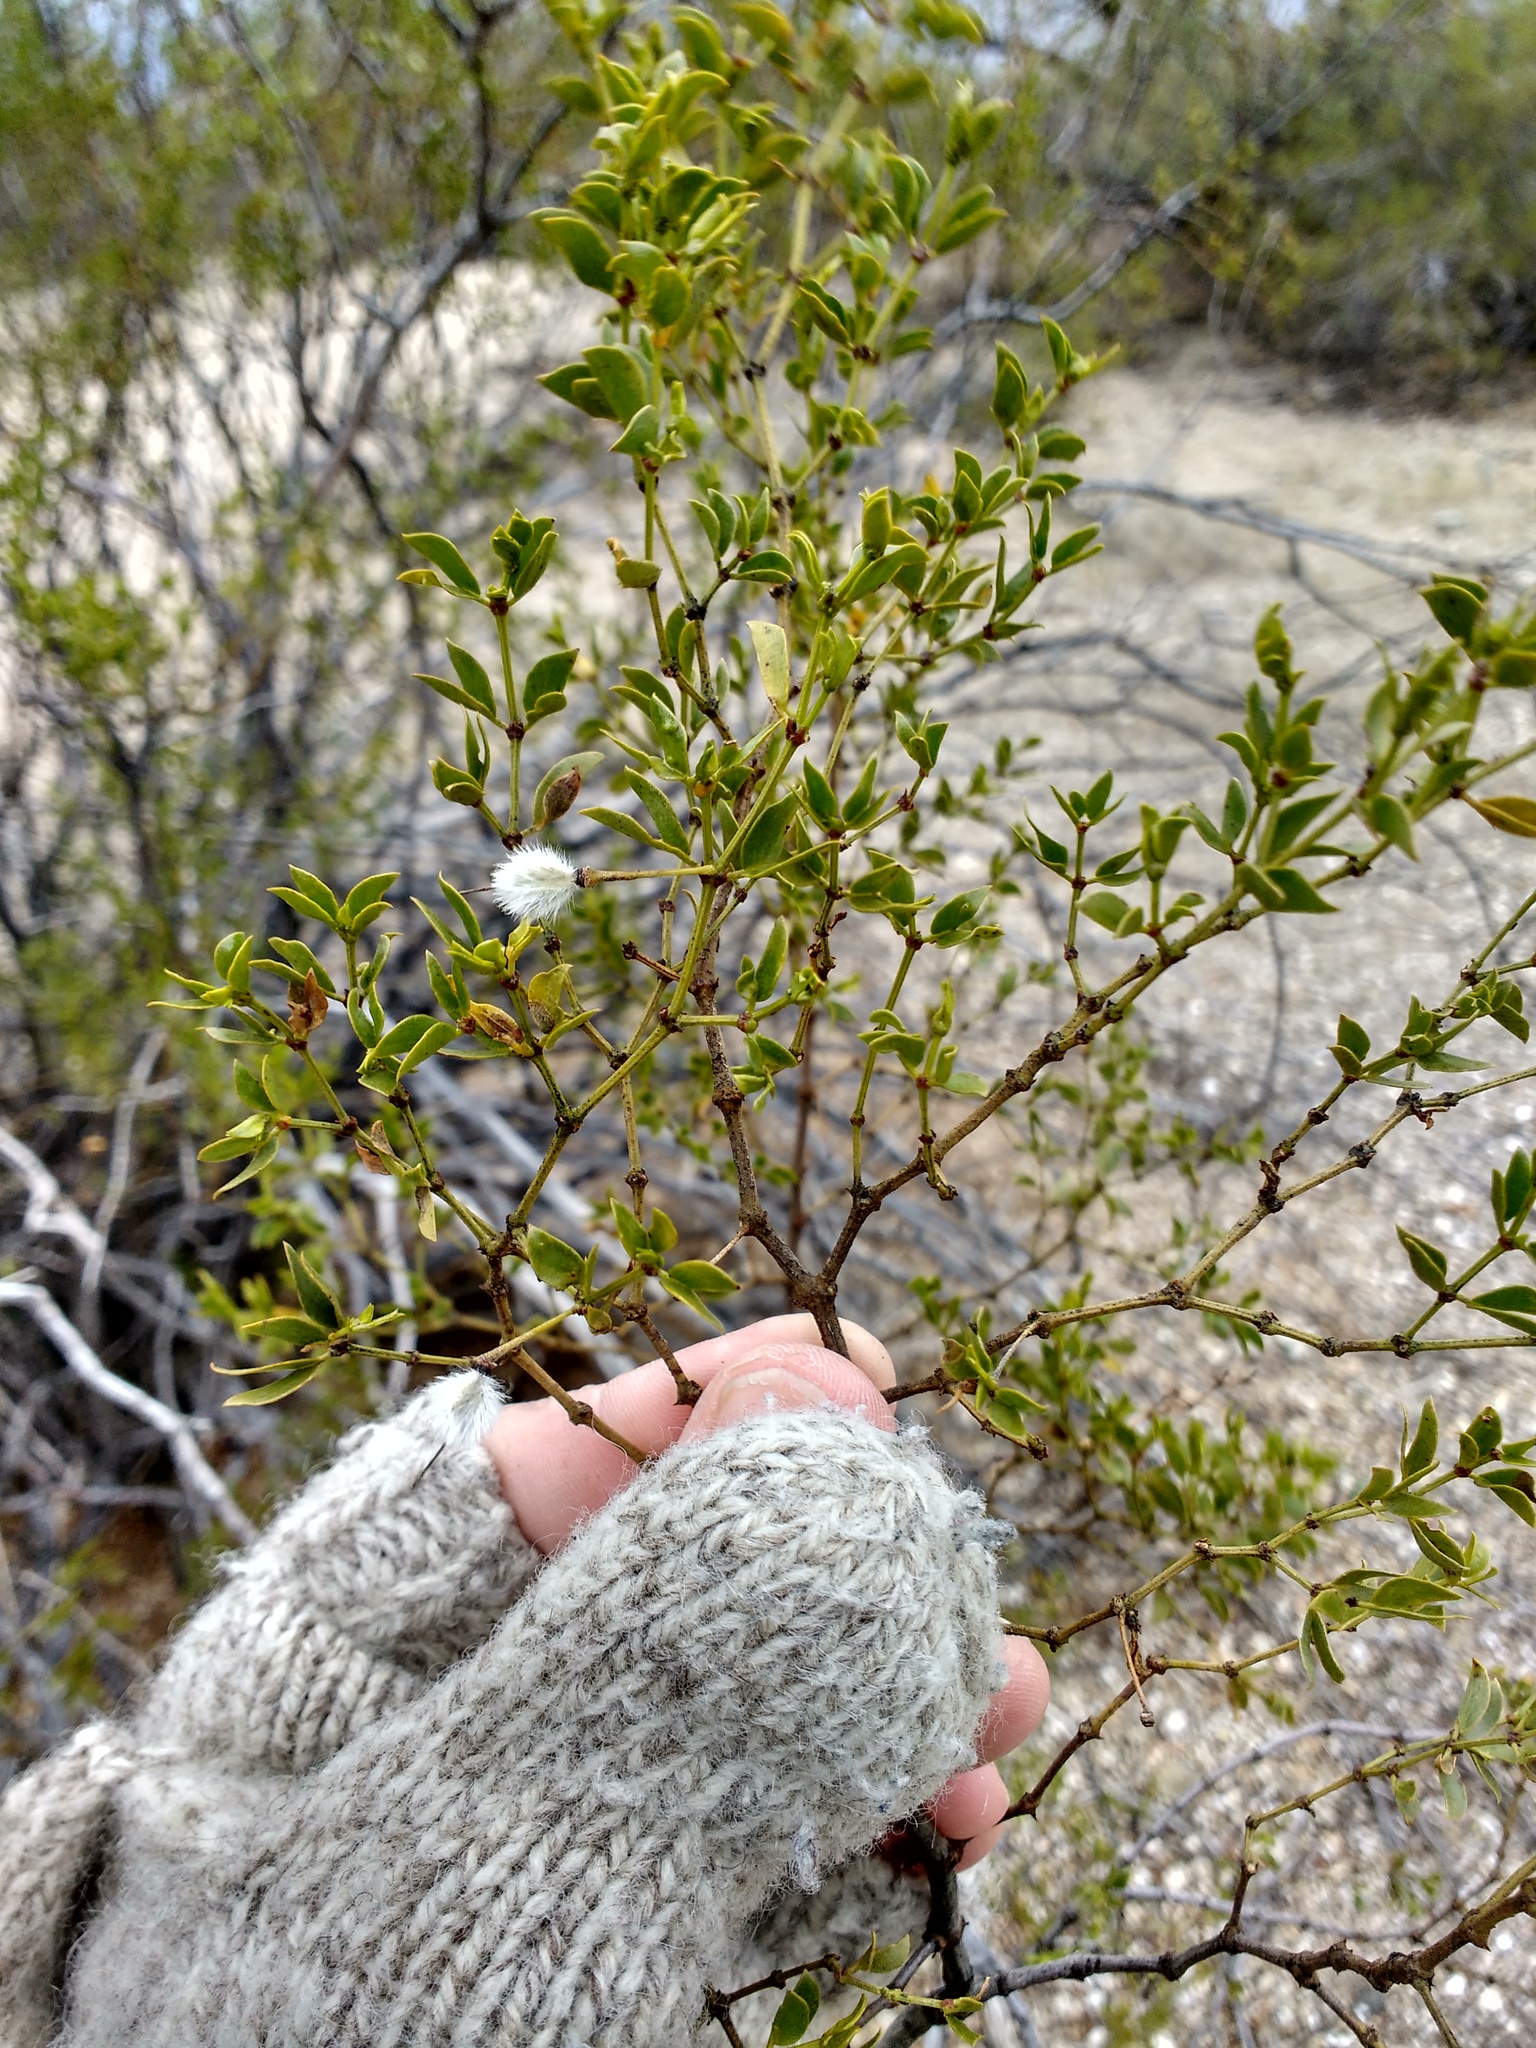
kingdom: Plantae
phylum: Tracheophyta
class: Magnoliopsida
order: Zygophyllales
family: Zygophyllaceae
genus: Larrea
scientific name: Larrea tridentata
